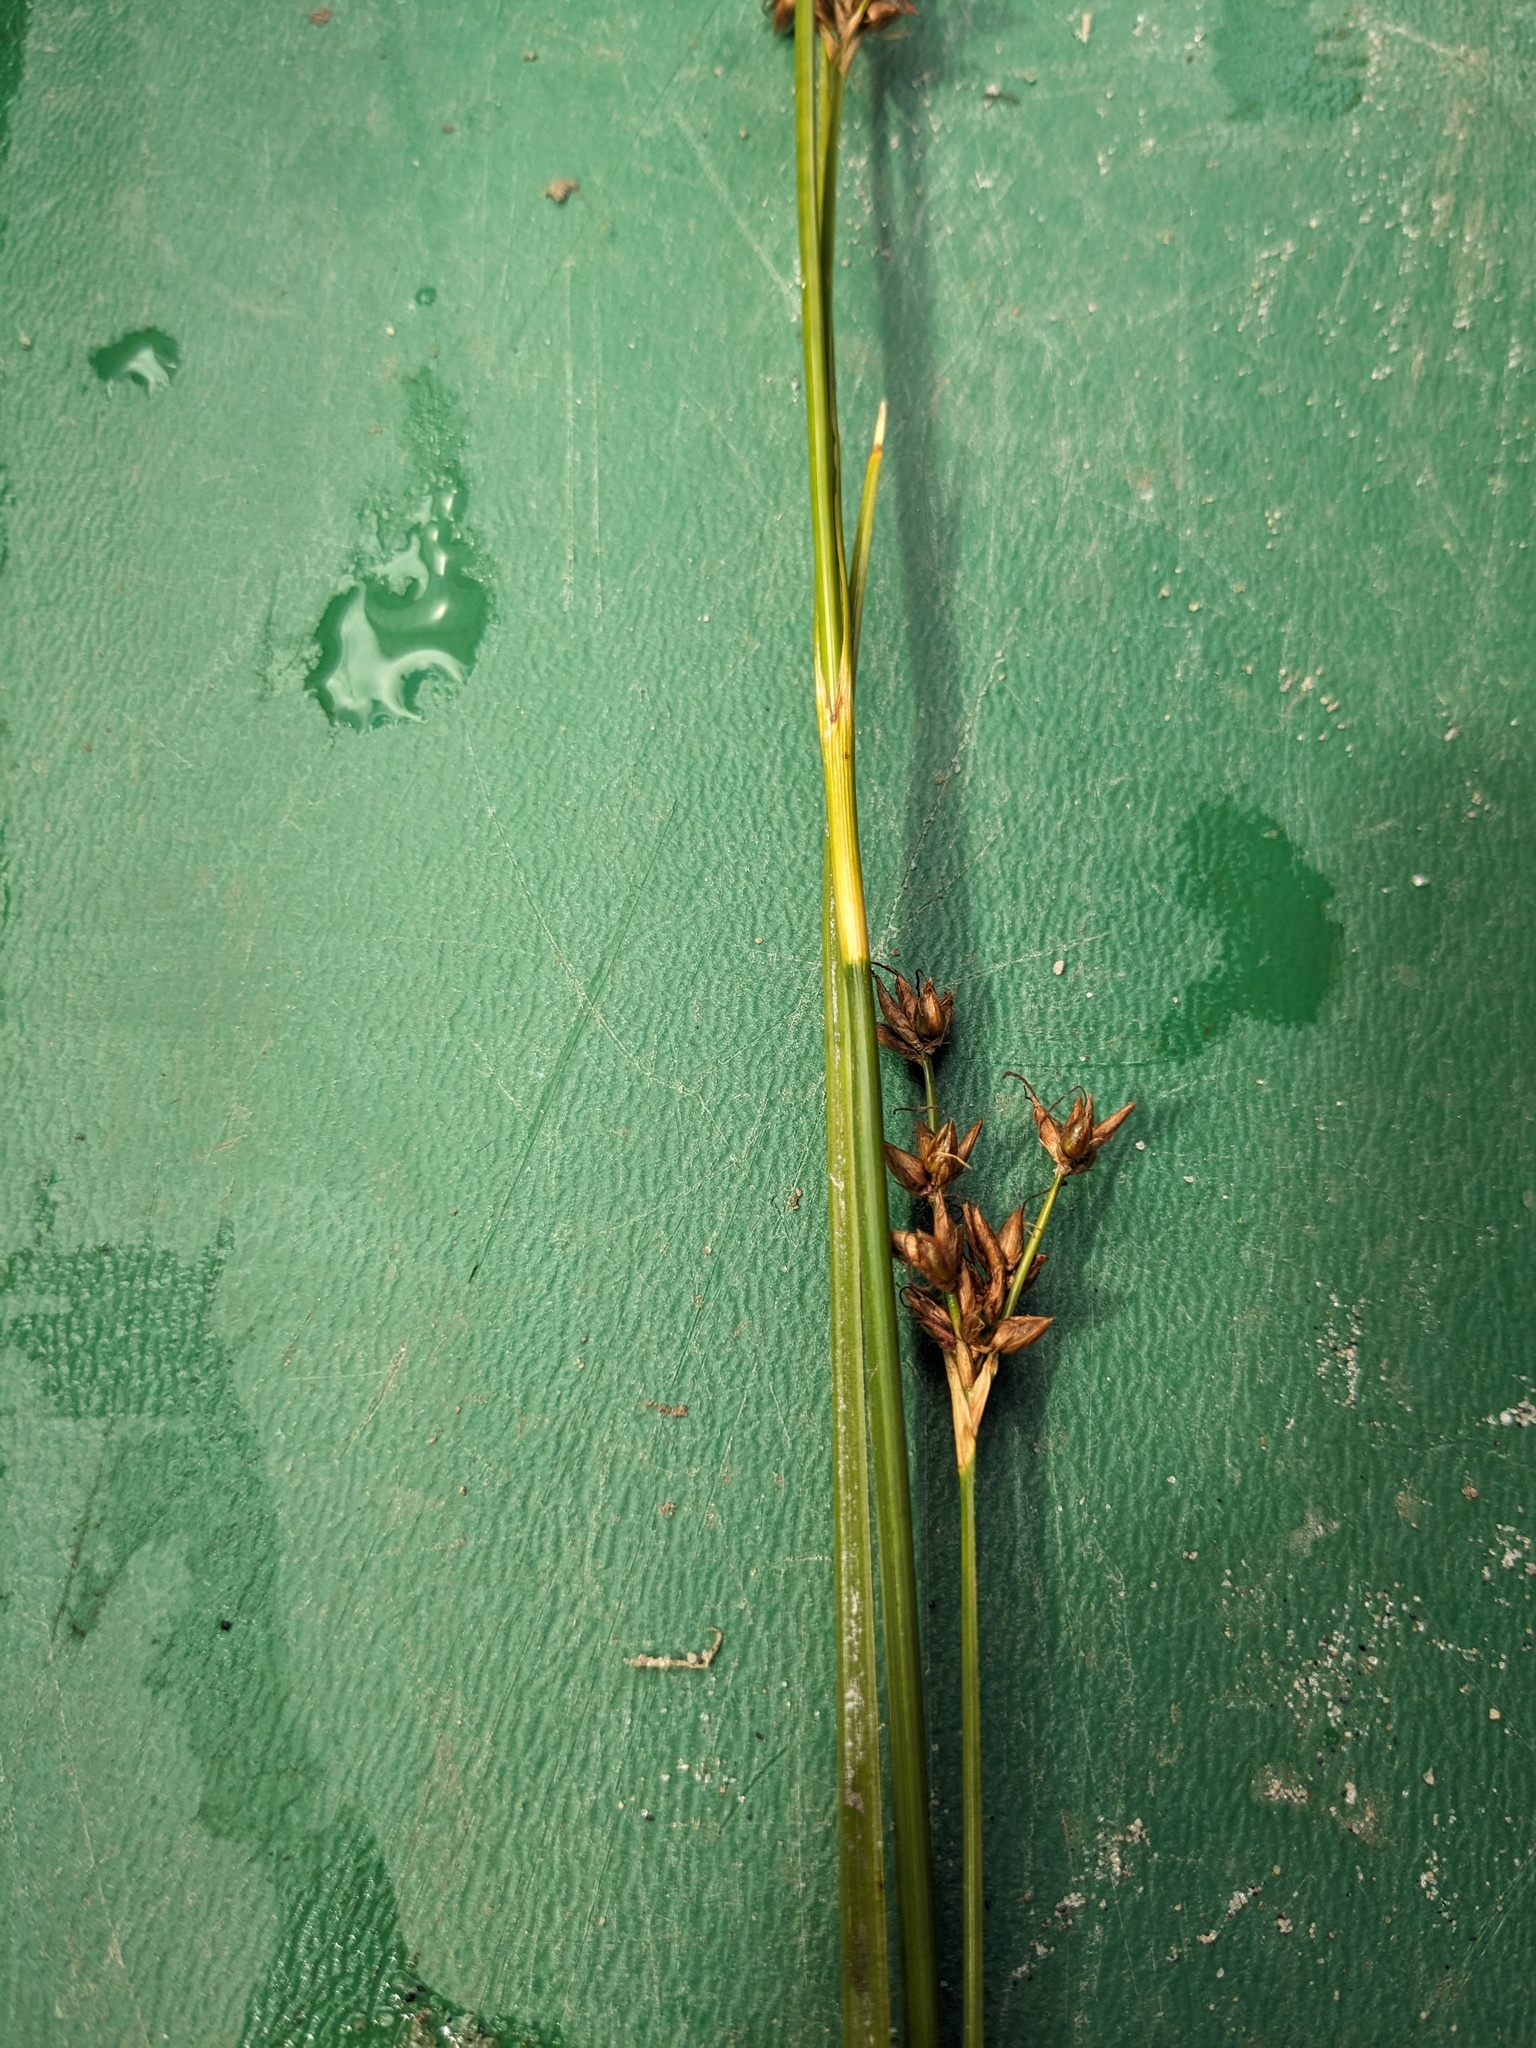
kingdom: Plantae
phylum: Tracheophyta
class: Liliopsida
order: Poales
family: Cyperaceae
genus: Cladium
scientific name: Cladium mariscoides
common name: Smooth sawgrass
